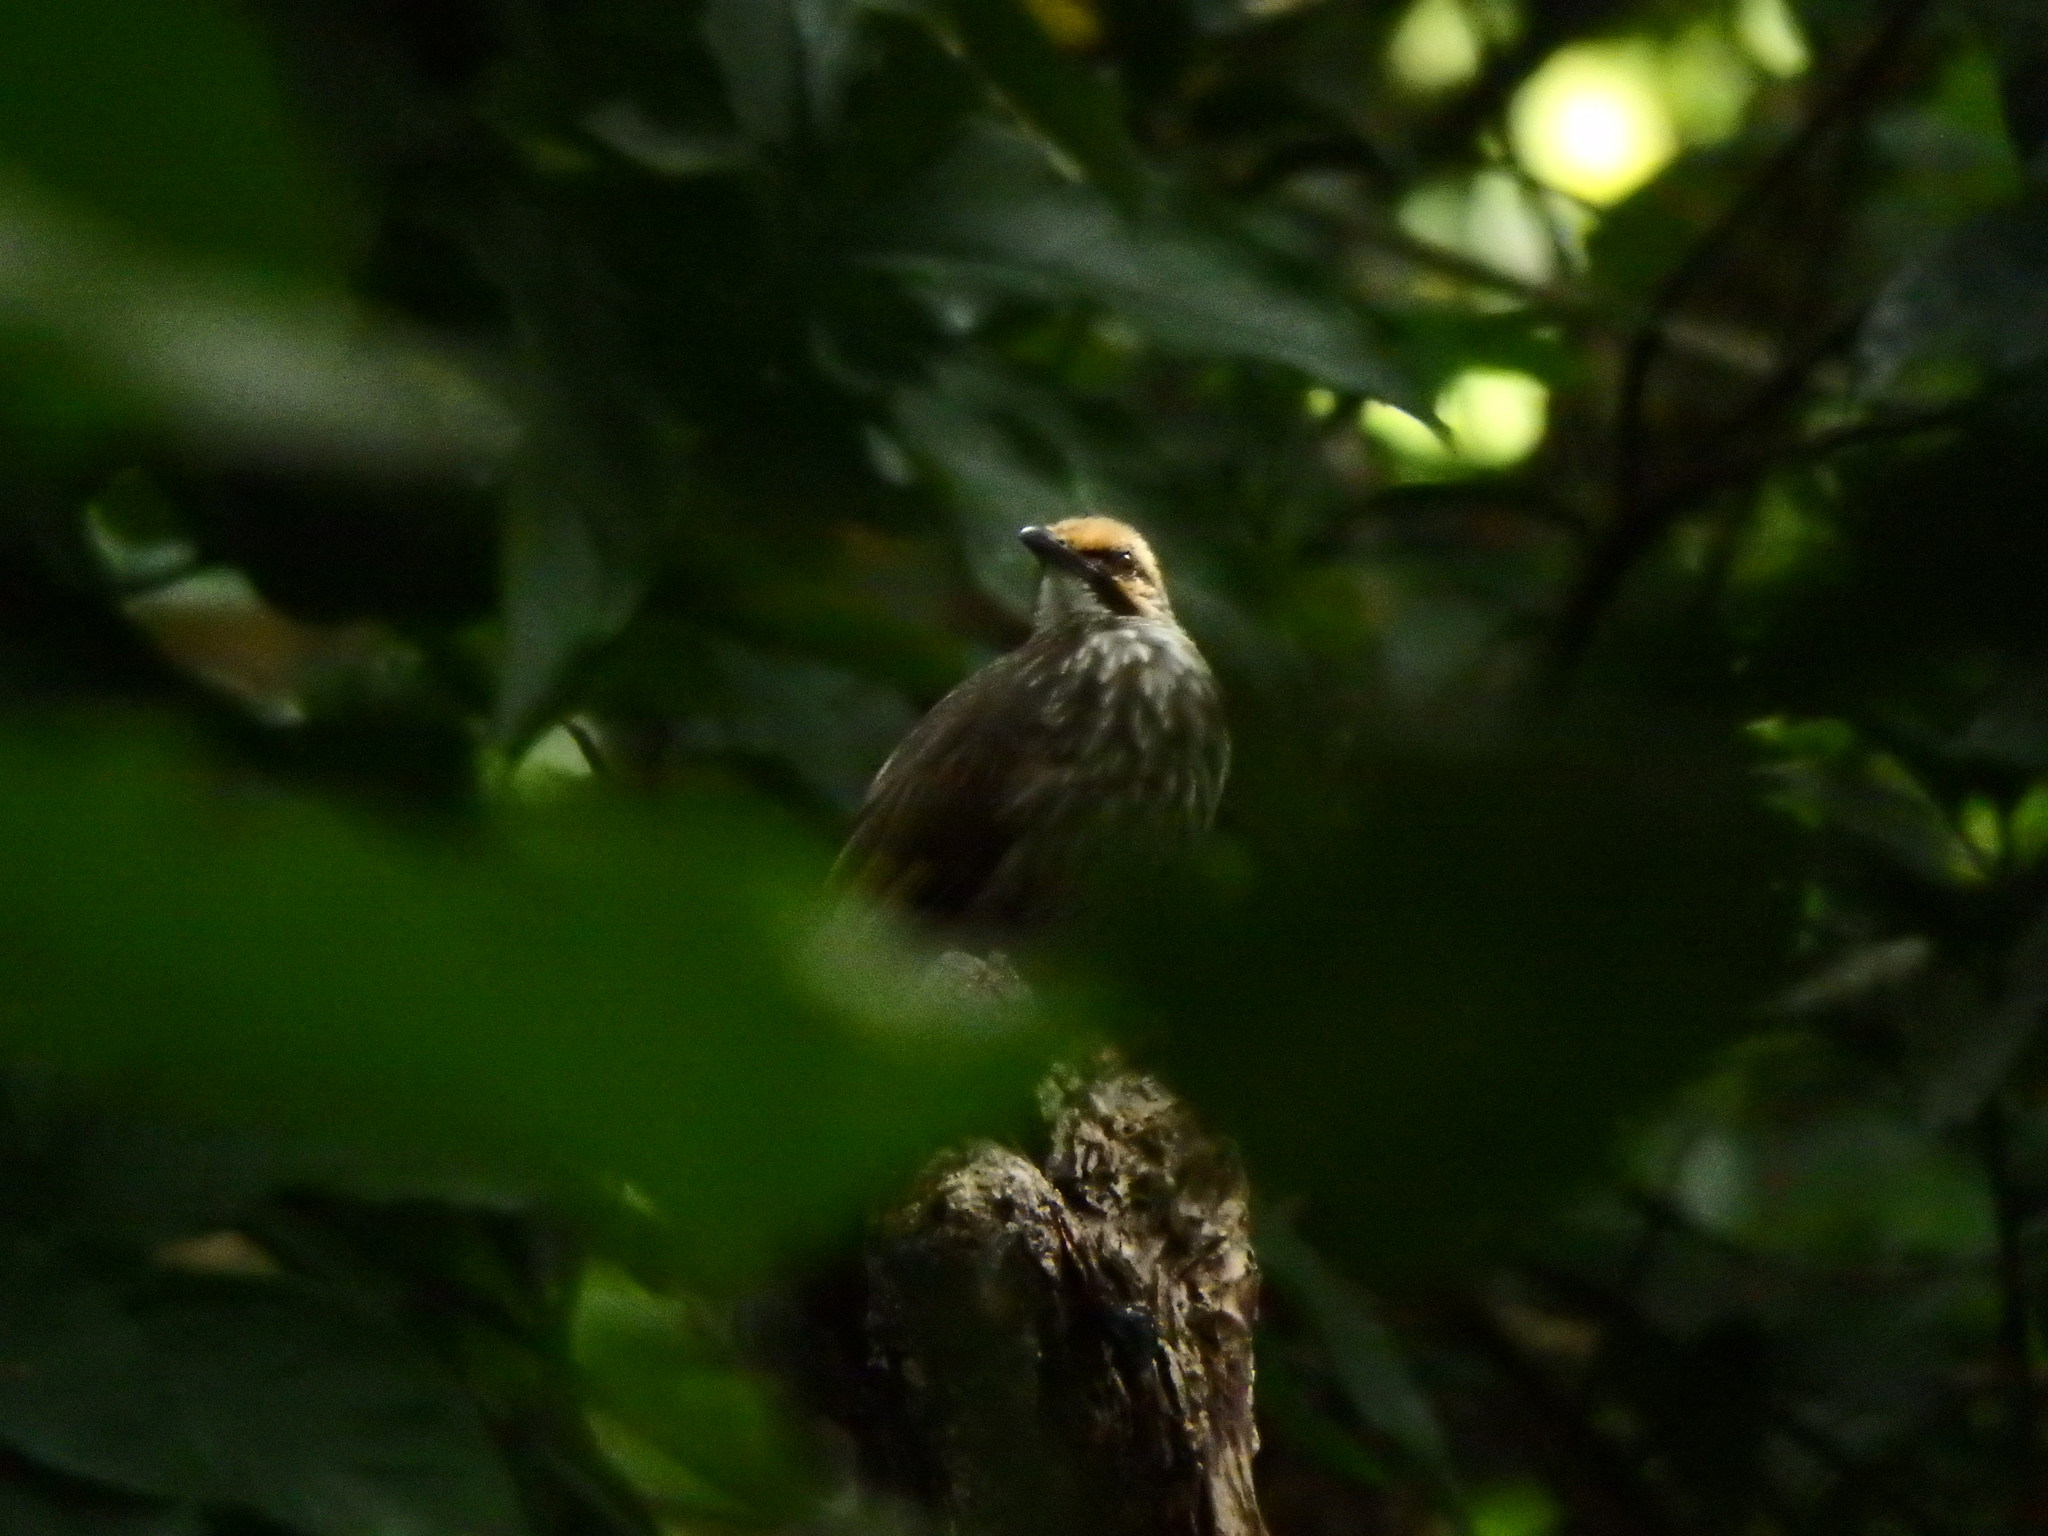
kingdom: Animalia
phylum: Chordata
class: Aves
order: Passeriformes
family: Pycnonotidae
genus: Pycnonotus
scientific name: Pycnonotus zeylanicus
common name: Straw-headed bulbul
